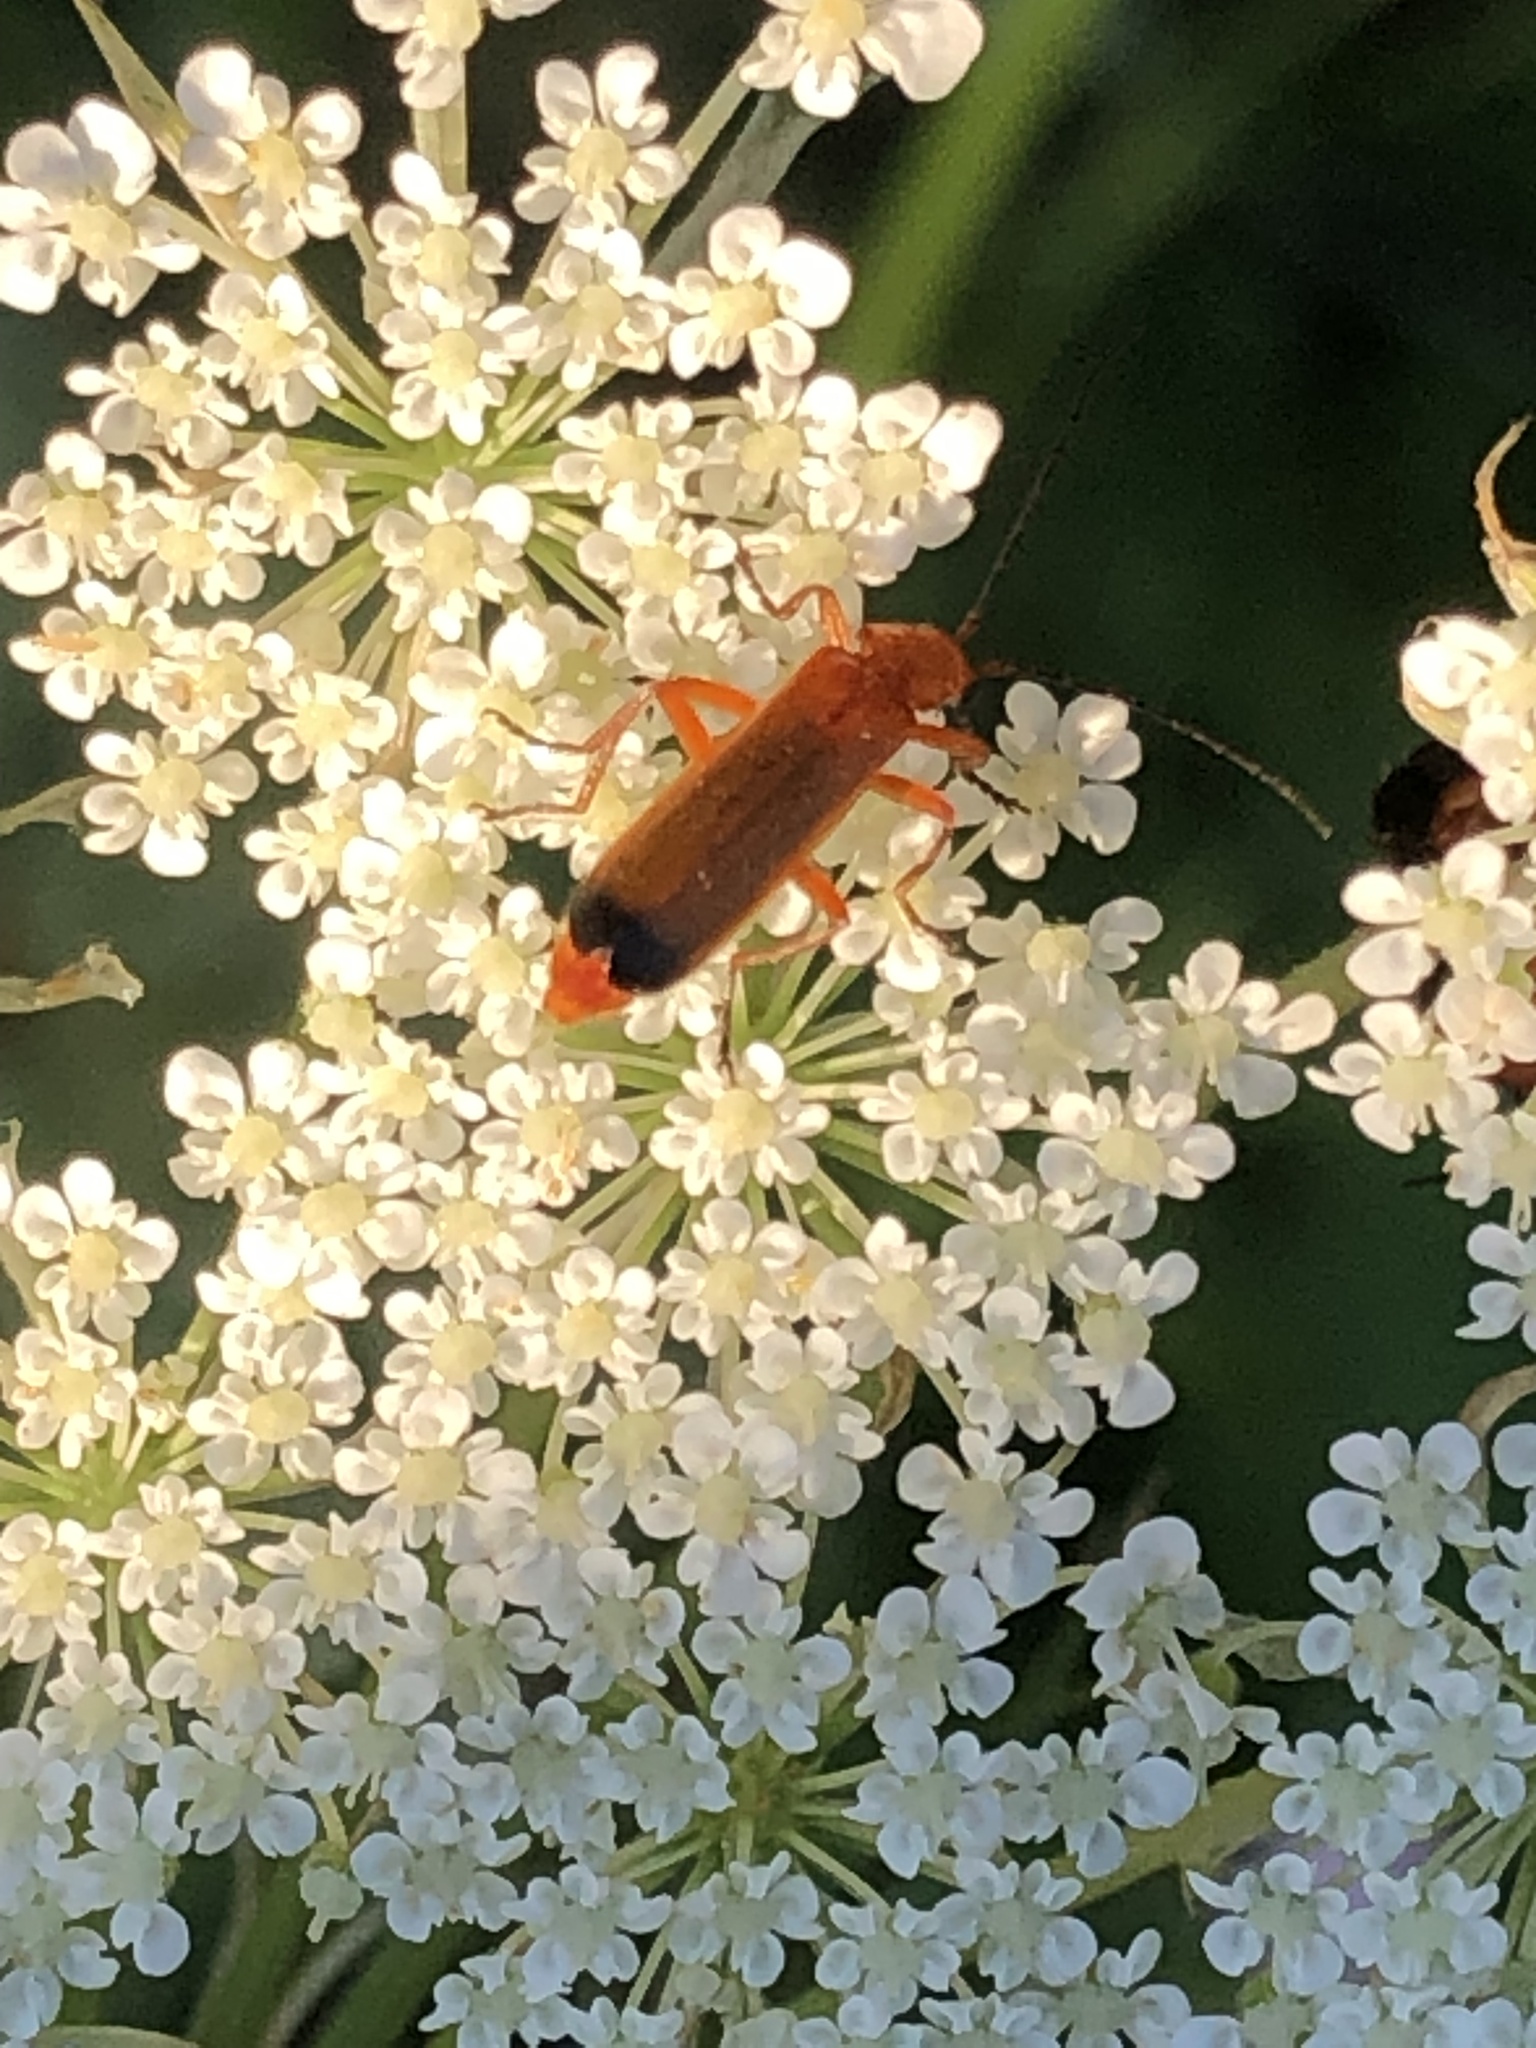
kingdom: Animalia
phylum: Arthropoda
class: Insecta
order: Coleoptera
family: Cantharidae
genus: Rhagonycha
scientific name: Rhagonycha fulva
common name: Common red soldier beetle
